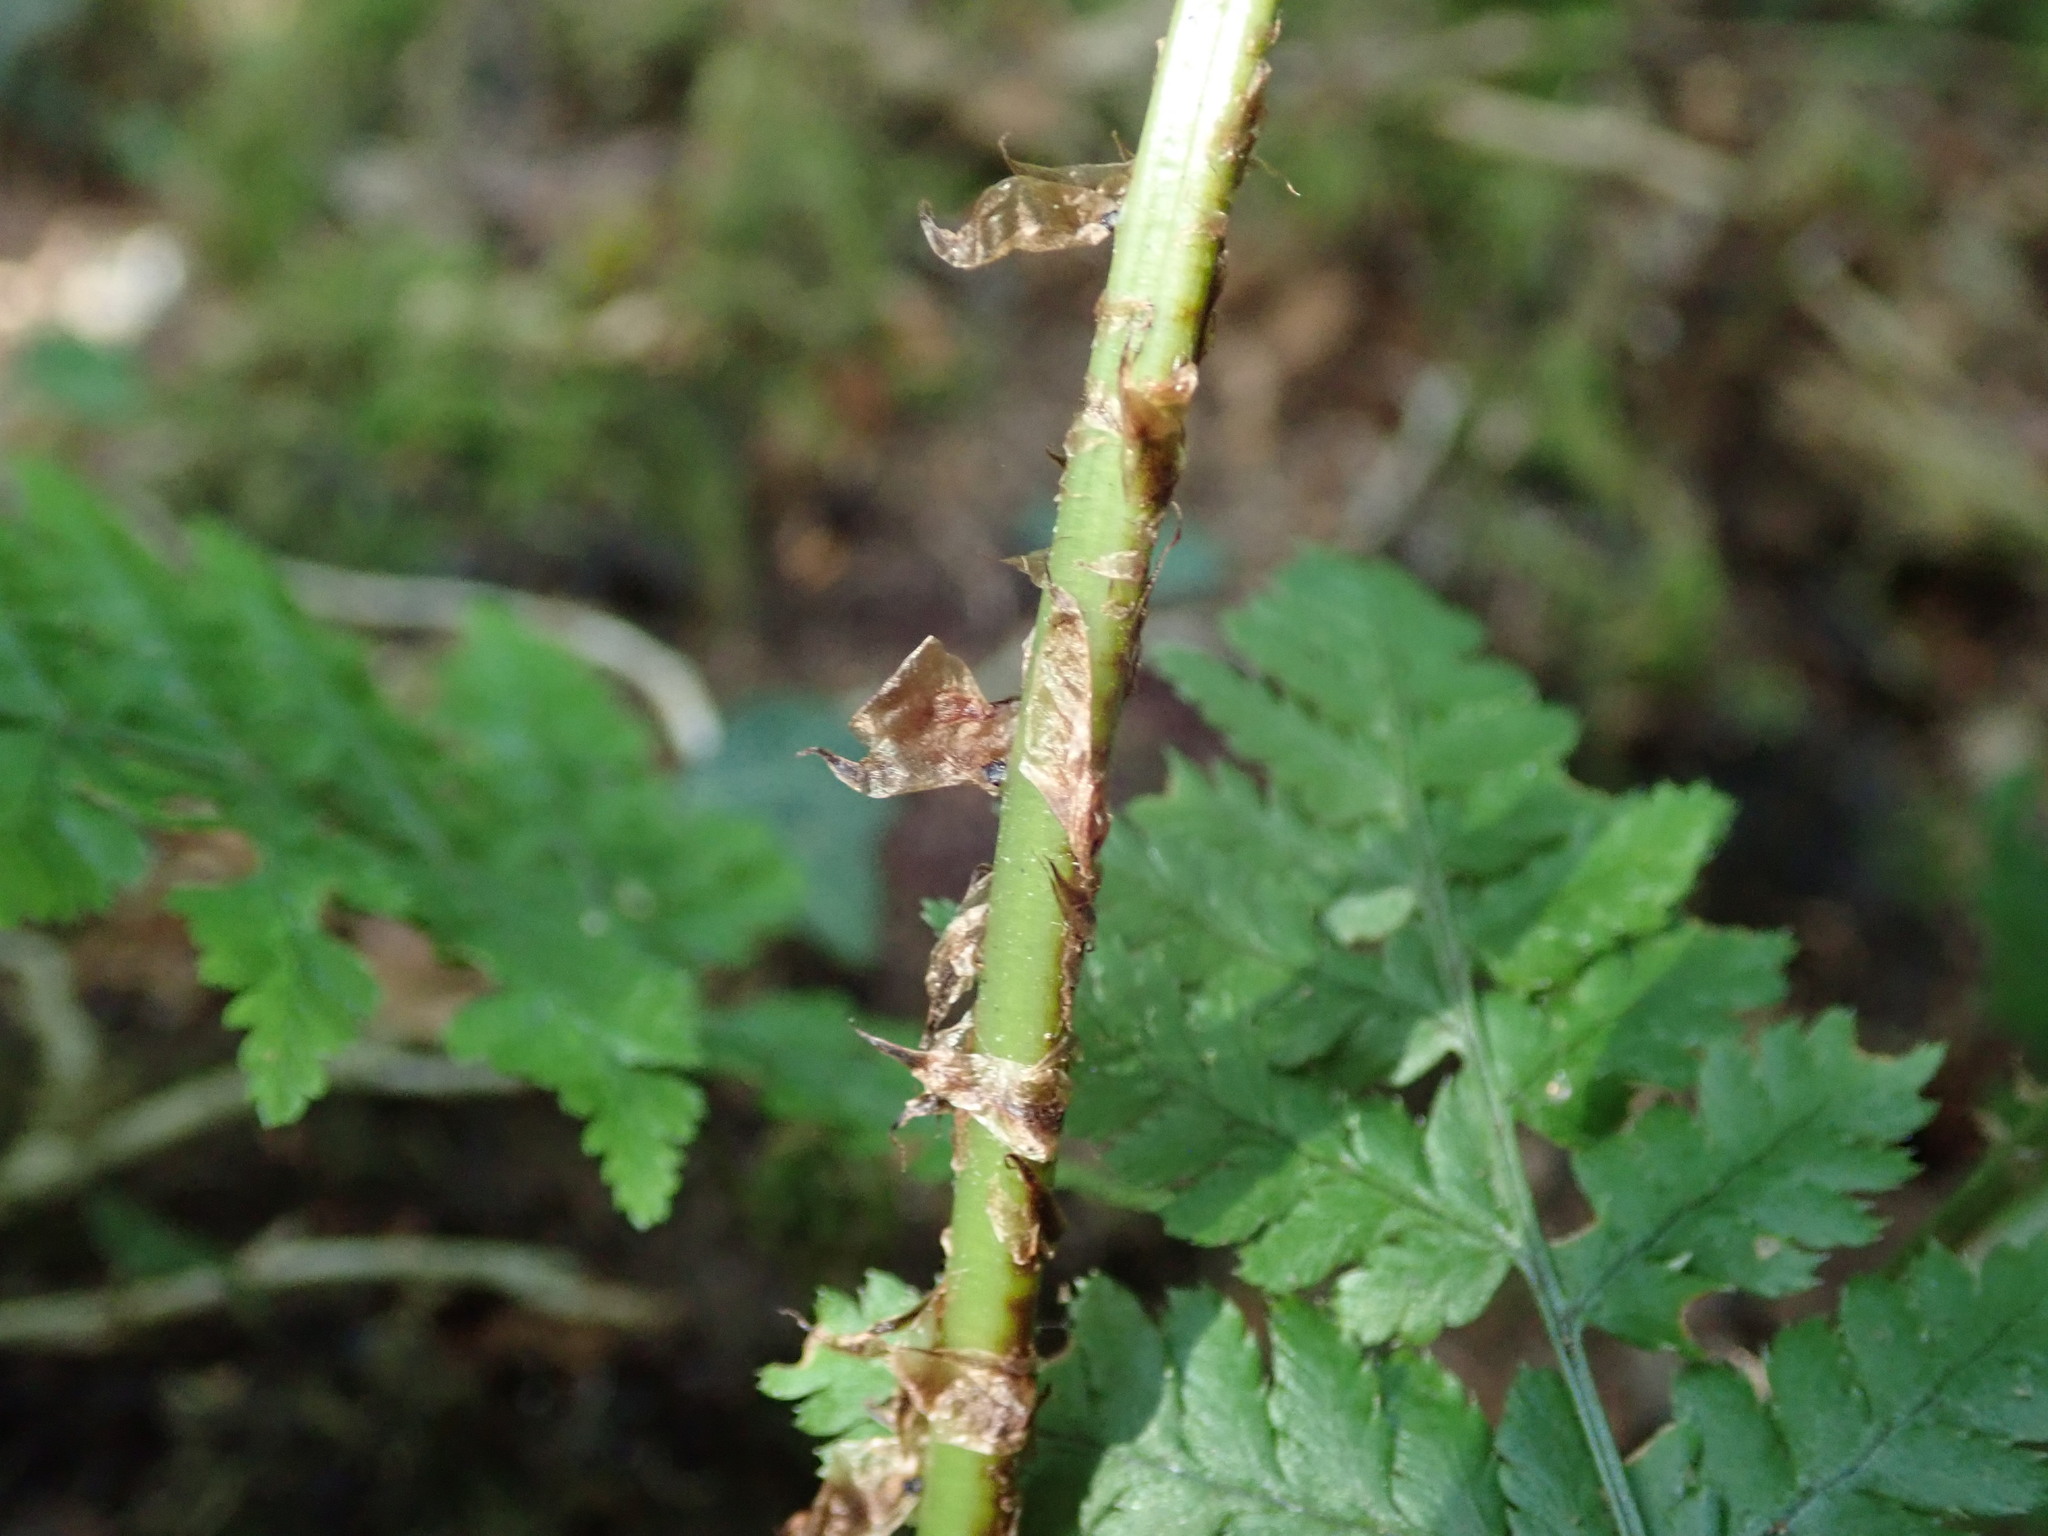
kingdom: Plantae
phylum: Tracheophyta
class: Polypodiopsida
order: Polypodiales
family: Dryopteridaceae
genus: Dryopteris
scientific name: Dryopteris dilatata
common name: Broad buckler-fern
